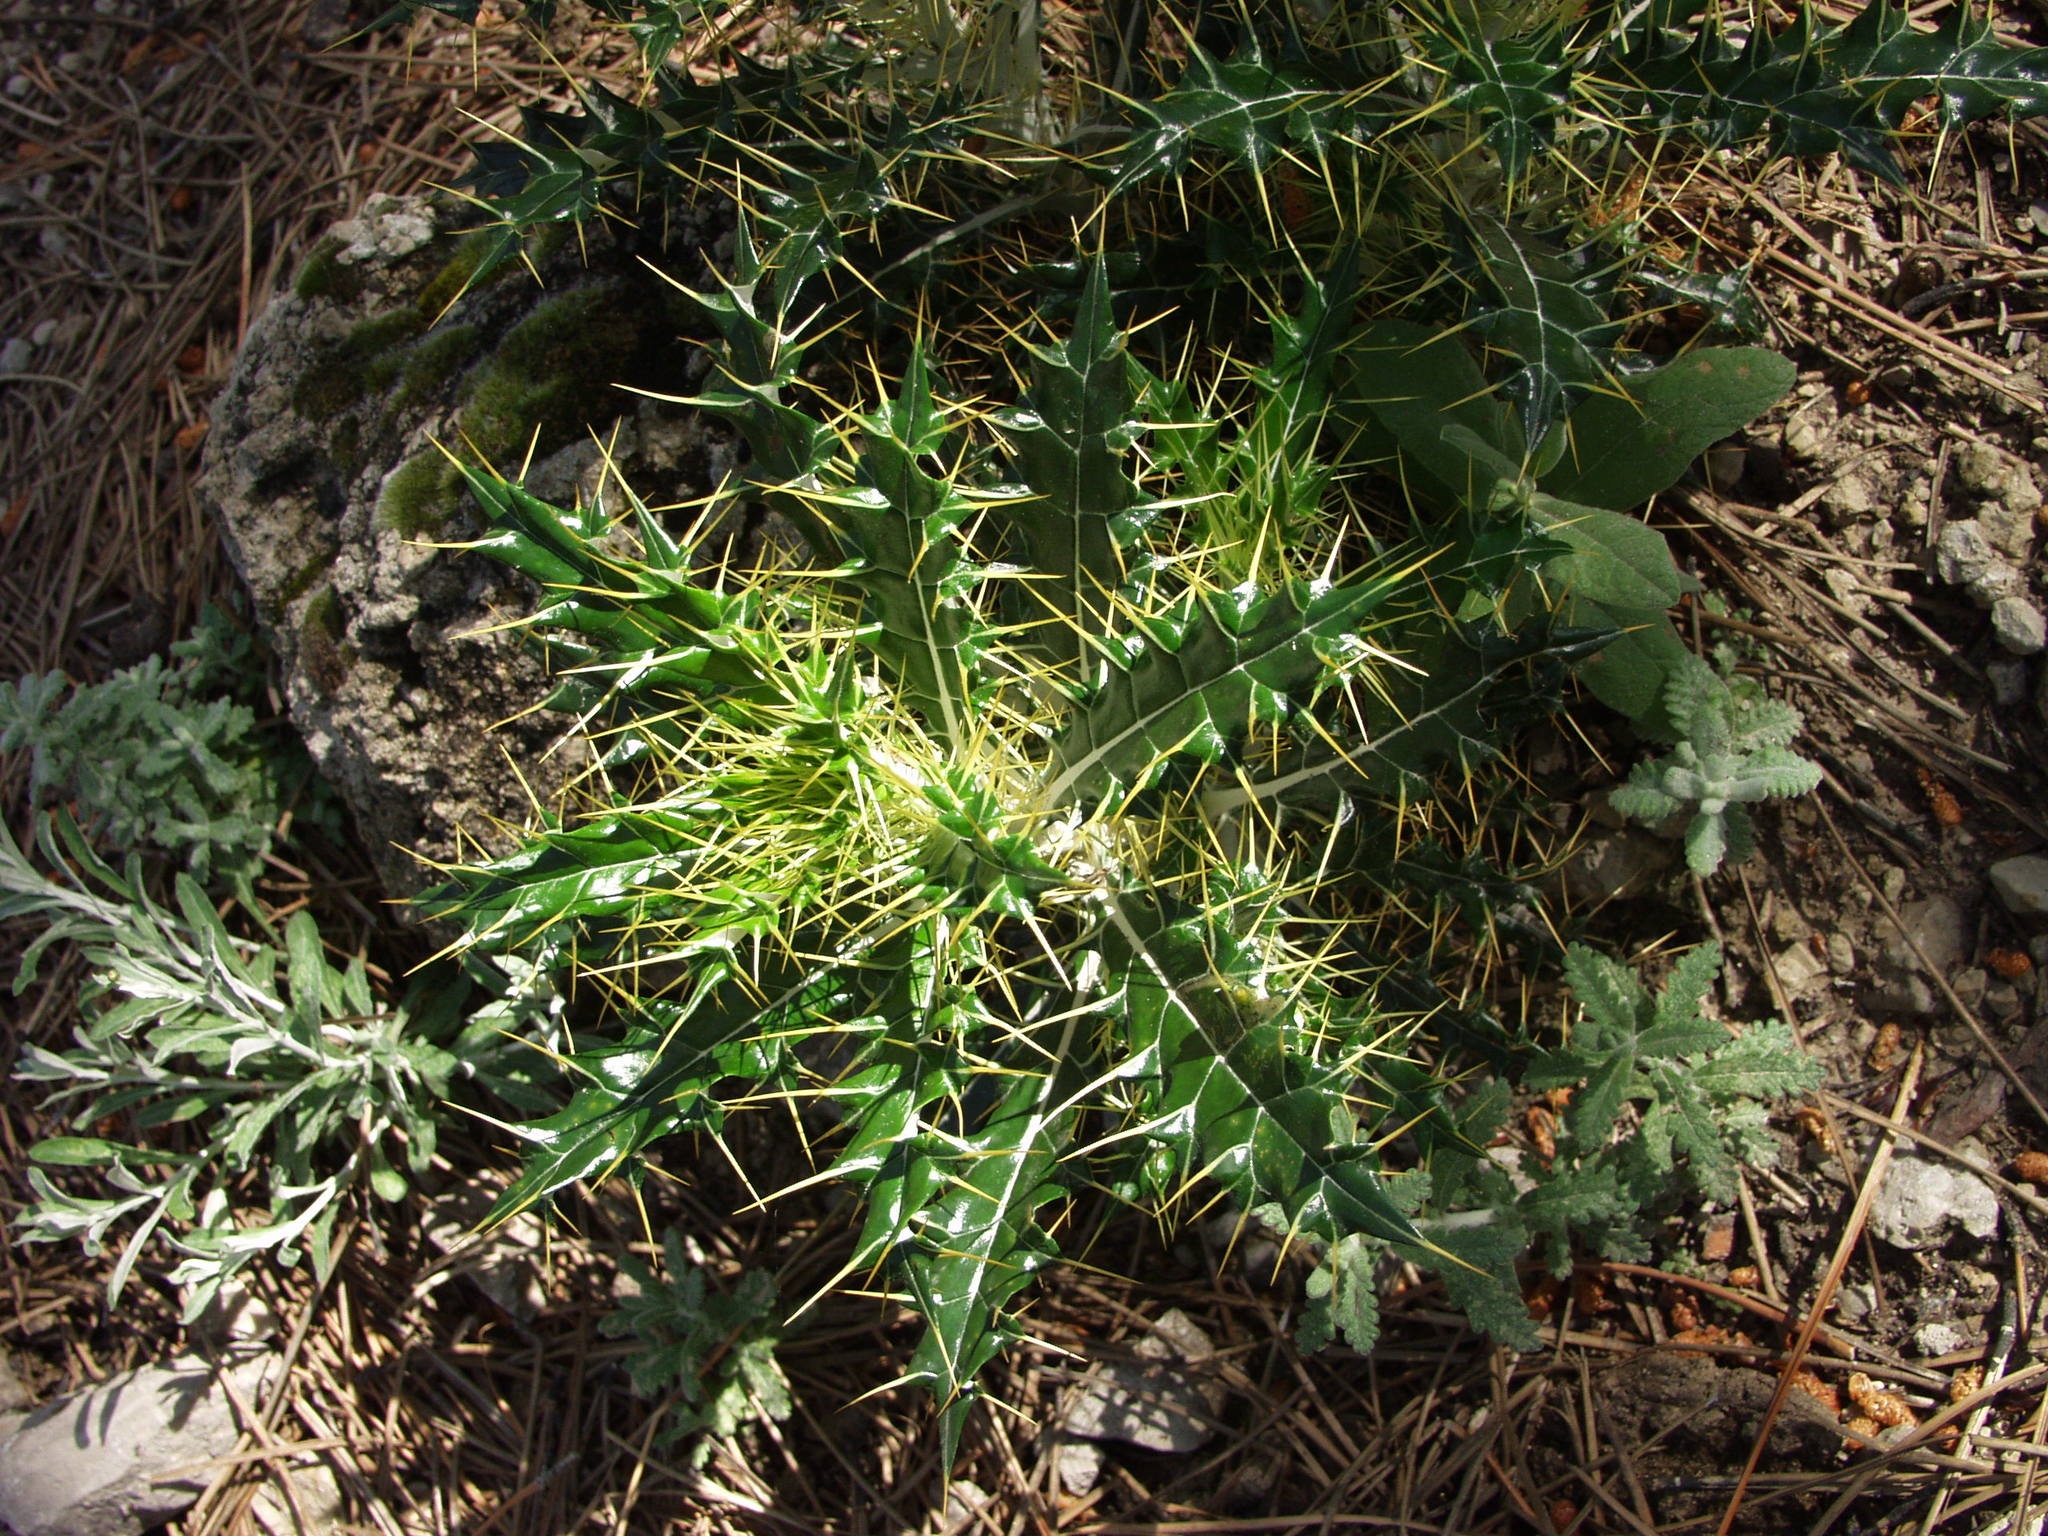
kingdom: Plantae
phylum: Tracheophyta
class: Magnoliopsida
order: Asterales
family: Asteraceae
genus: Ptilostemon
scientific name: Ptilostemon hispanicus
